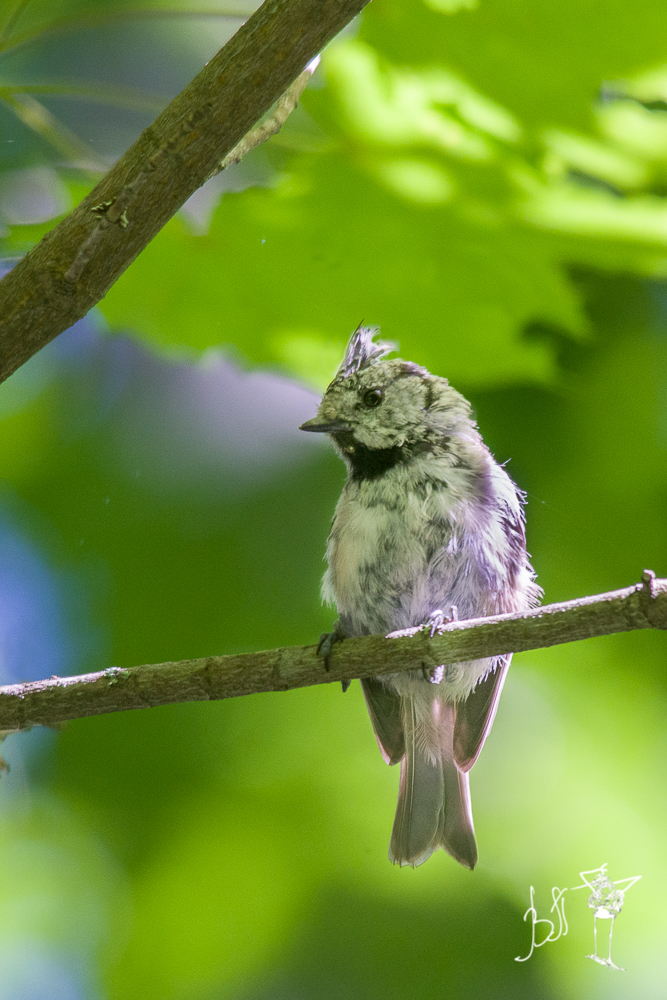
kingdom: Animalia
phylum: Chordata
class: Aves
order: Passeriformes
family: Paridae
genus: Lophophanes
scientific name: Lophophanes cristatus
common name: European crested tit
